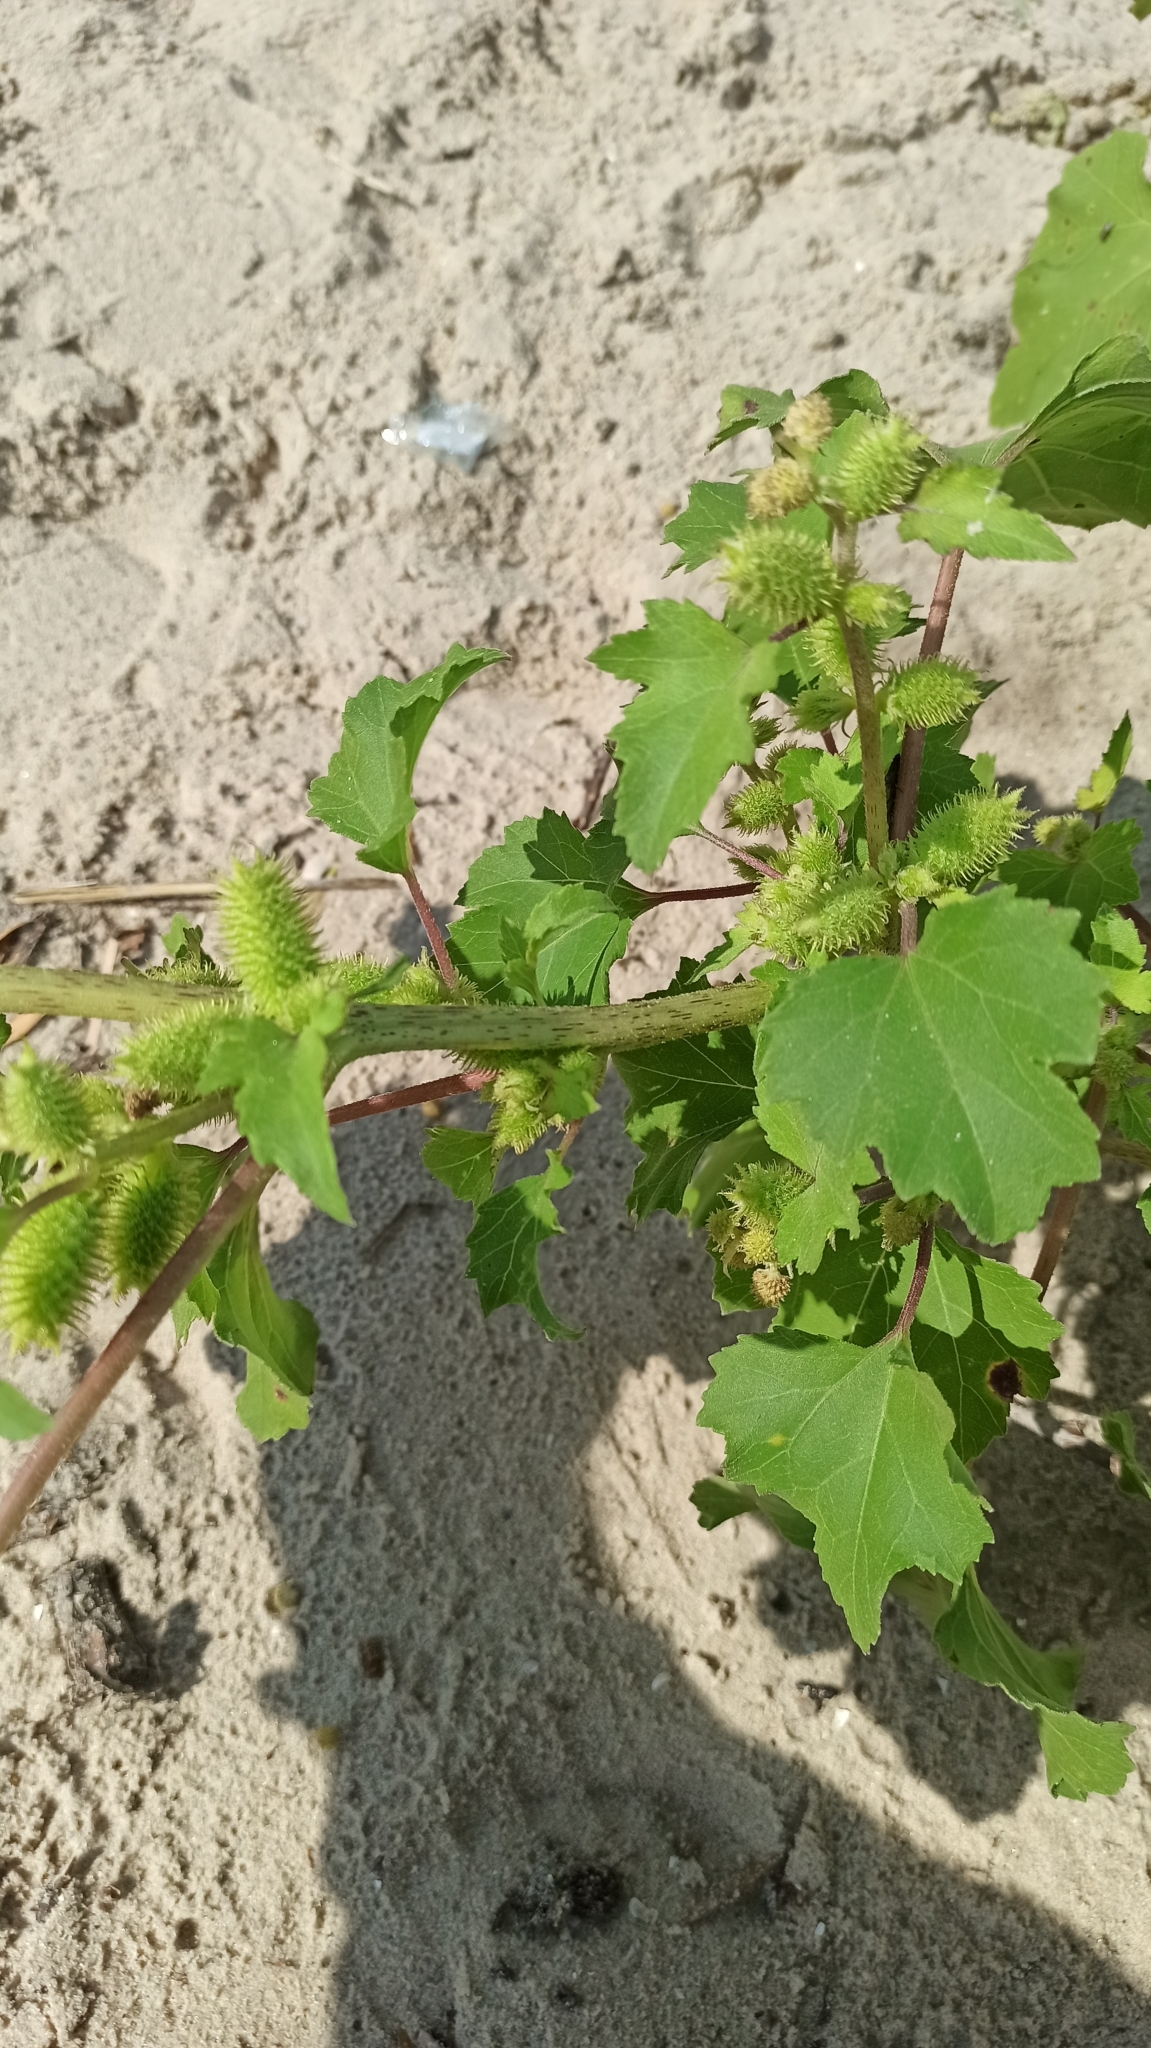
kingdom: Plantae
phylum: Tracheophyta
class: Magnoliopsida
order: Asterales
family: Asteraceae
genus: Xanthium
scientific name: Xanthium orientale
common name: Californian burr
